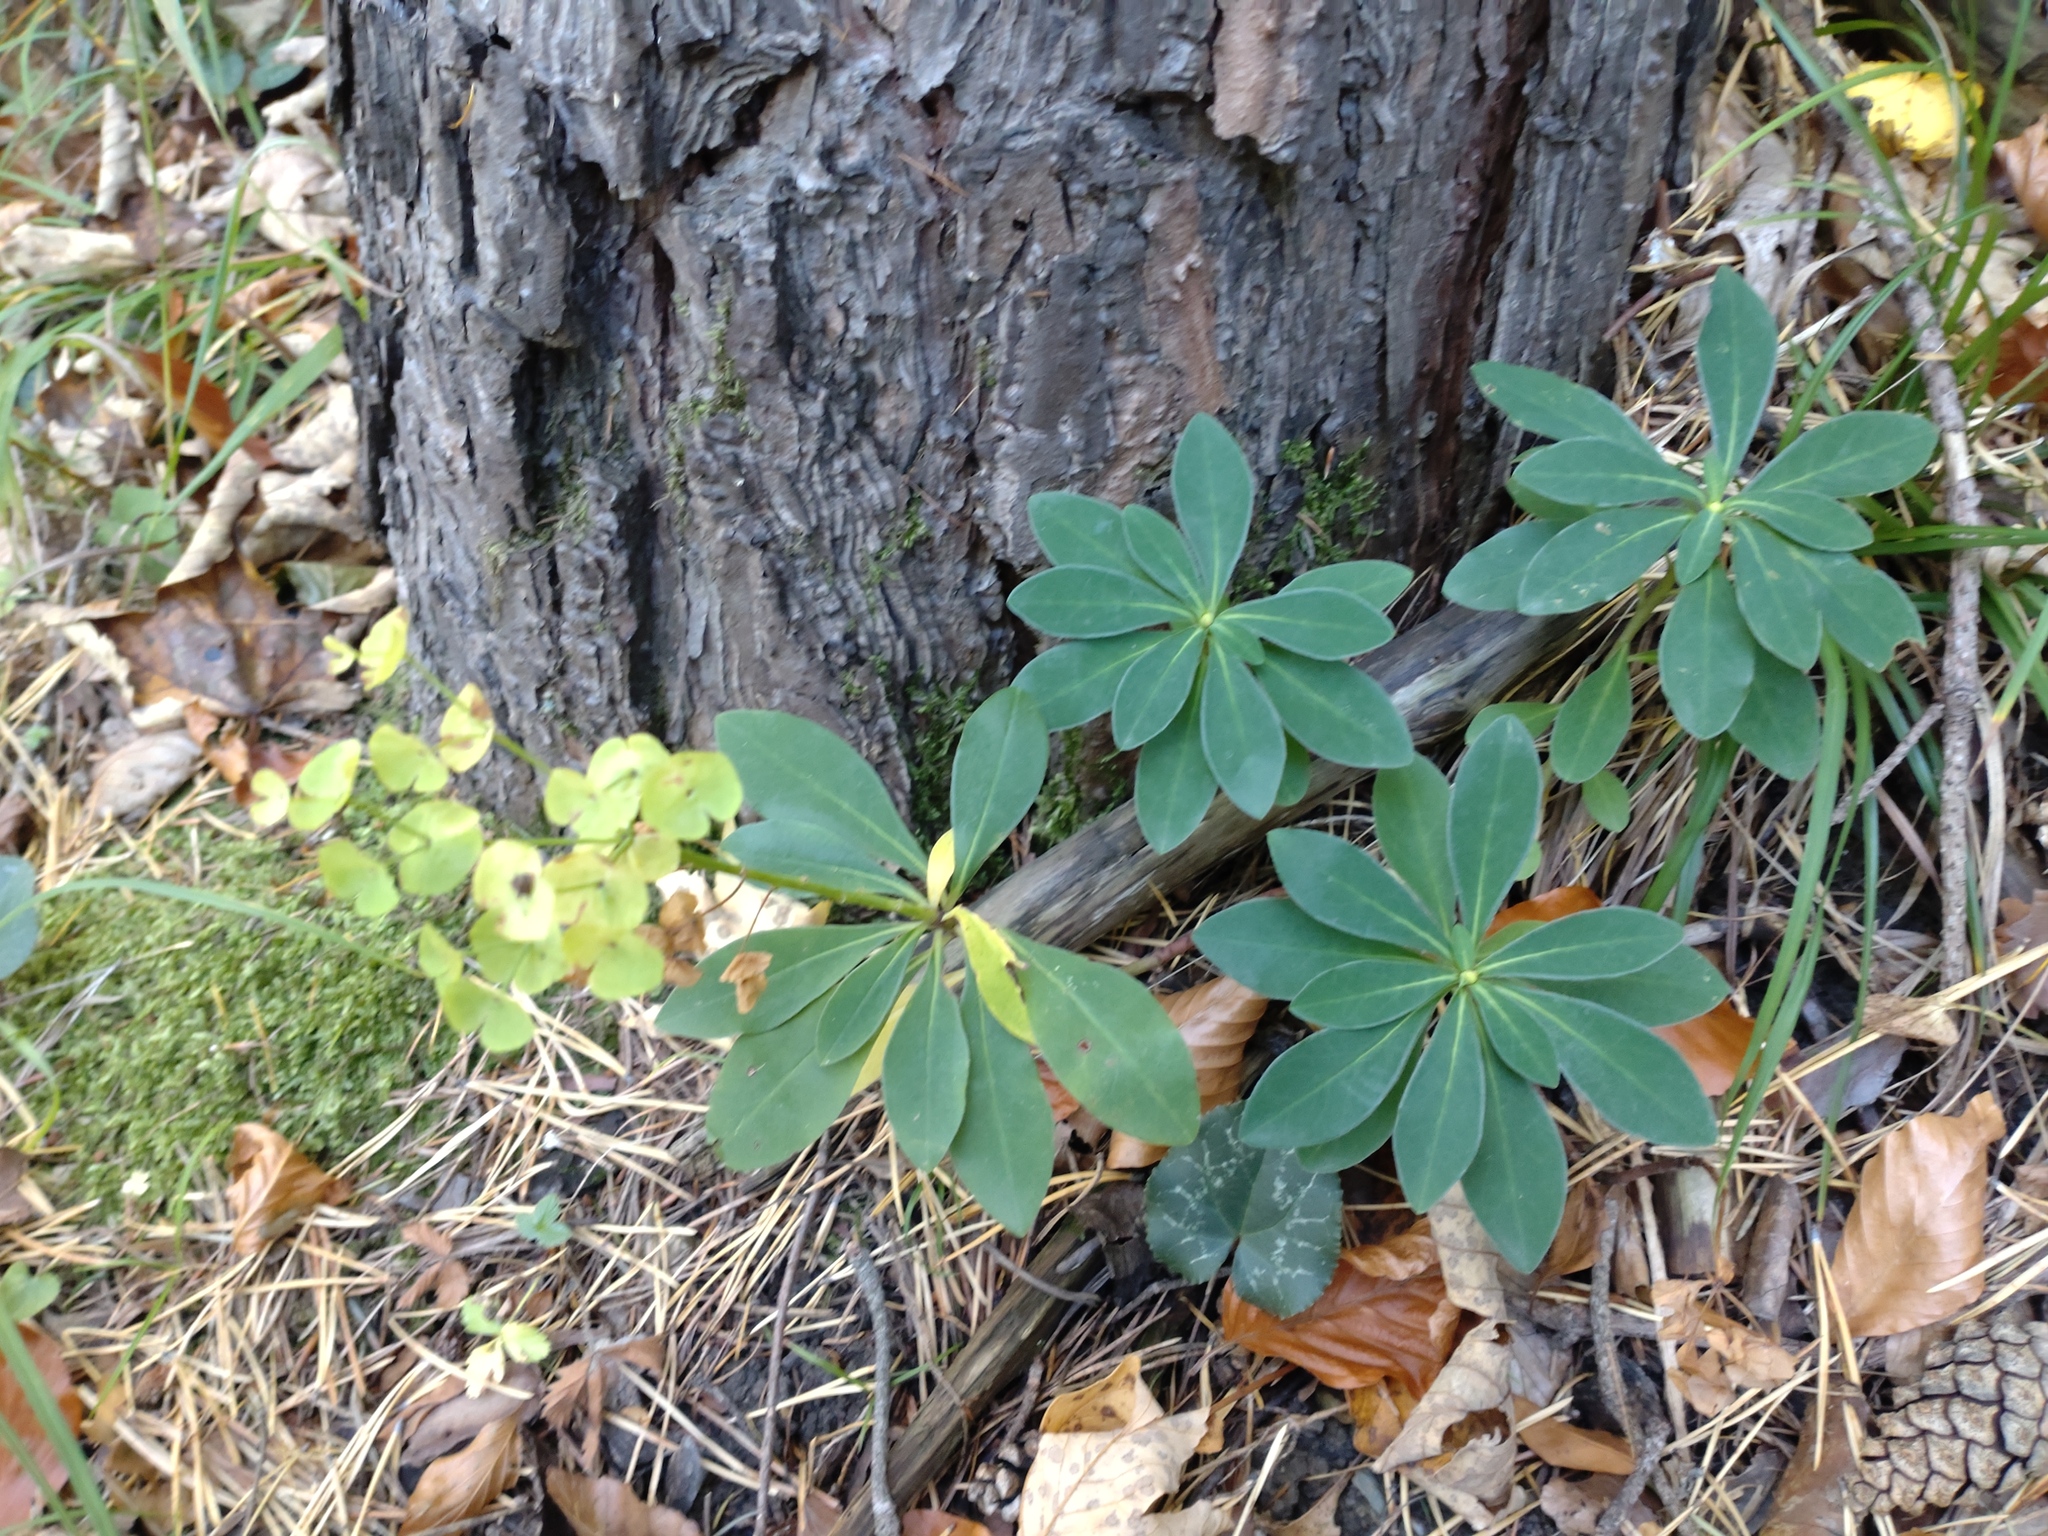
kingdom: Plantae
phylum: Tracheophyta
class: Magnoliopsida
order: Malpighiales
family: Euphorbiaceae
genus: Euphorbia
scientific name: Euphorbia amygdaloides
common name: Wood spurge
